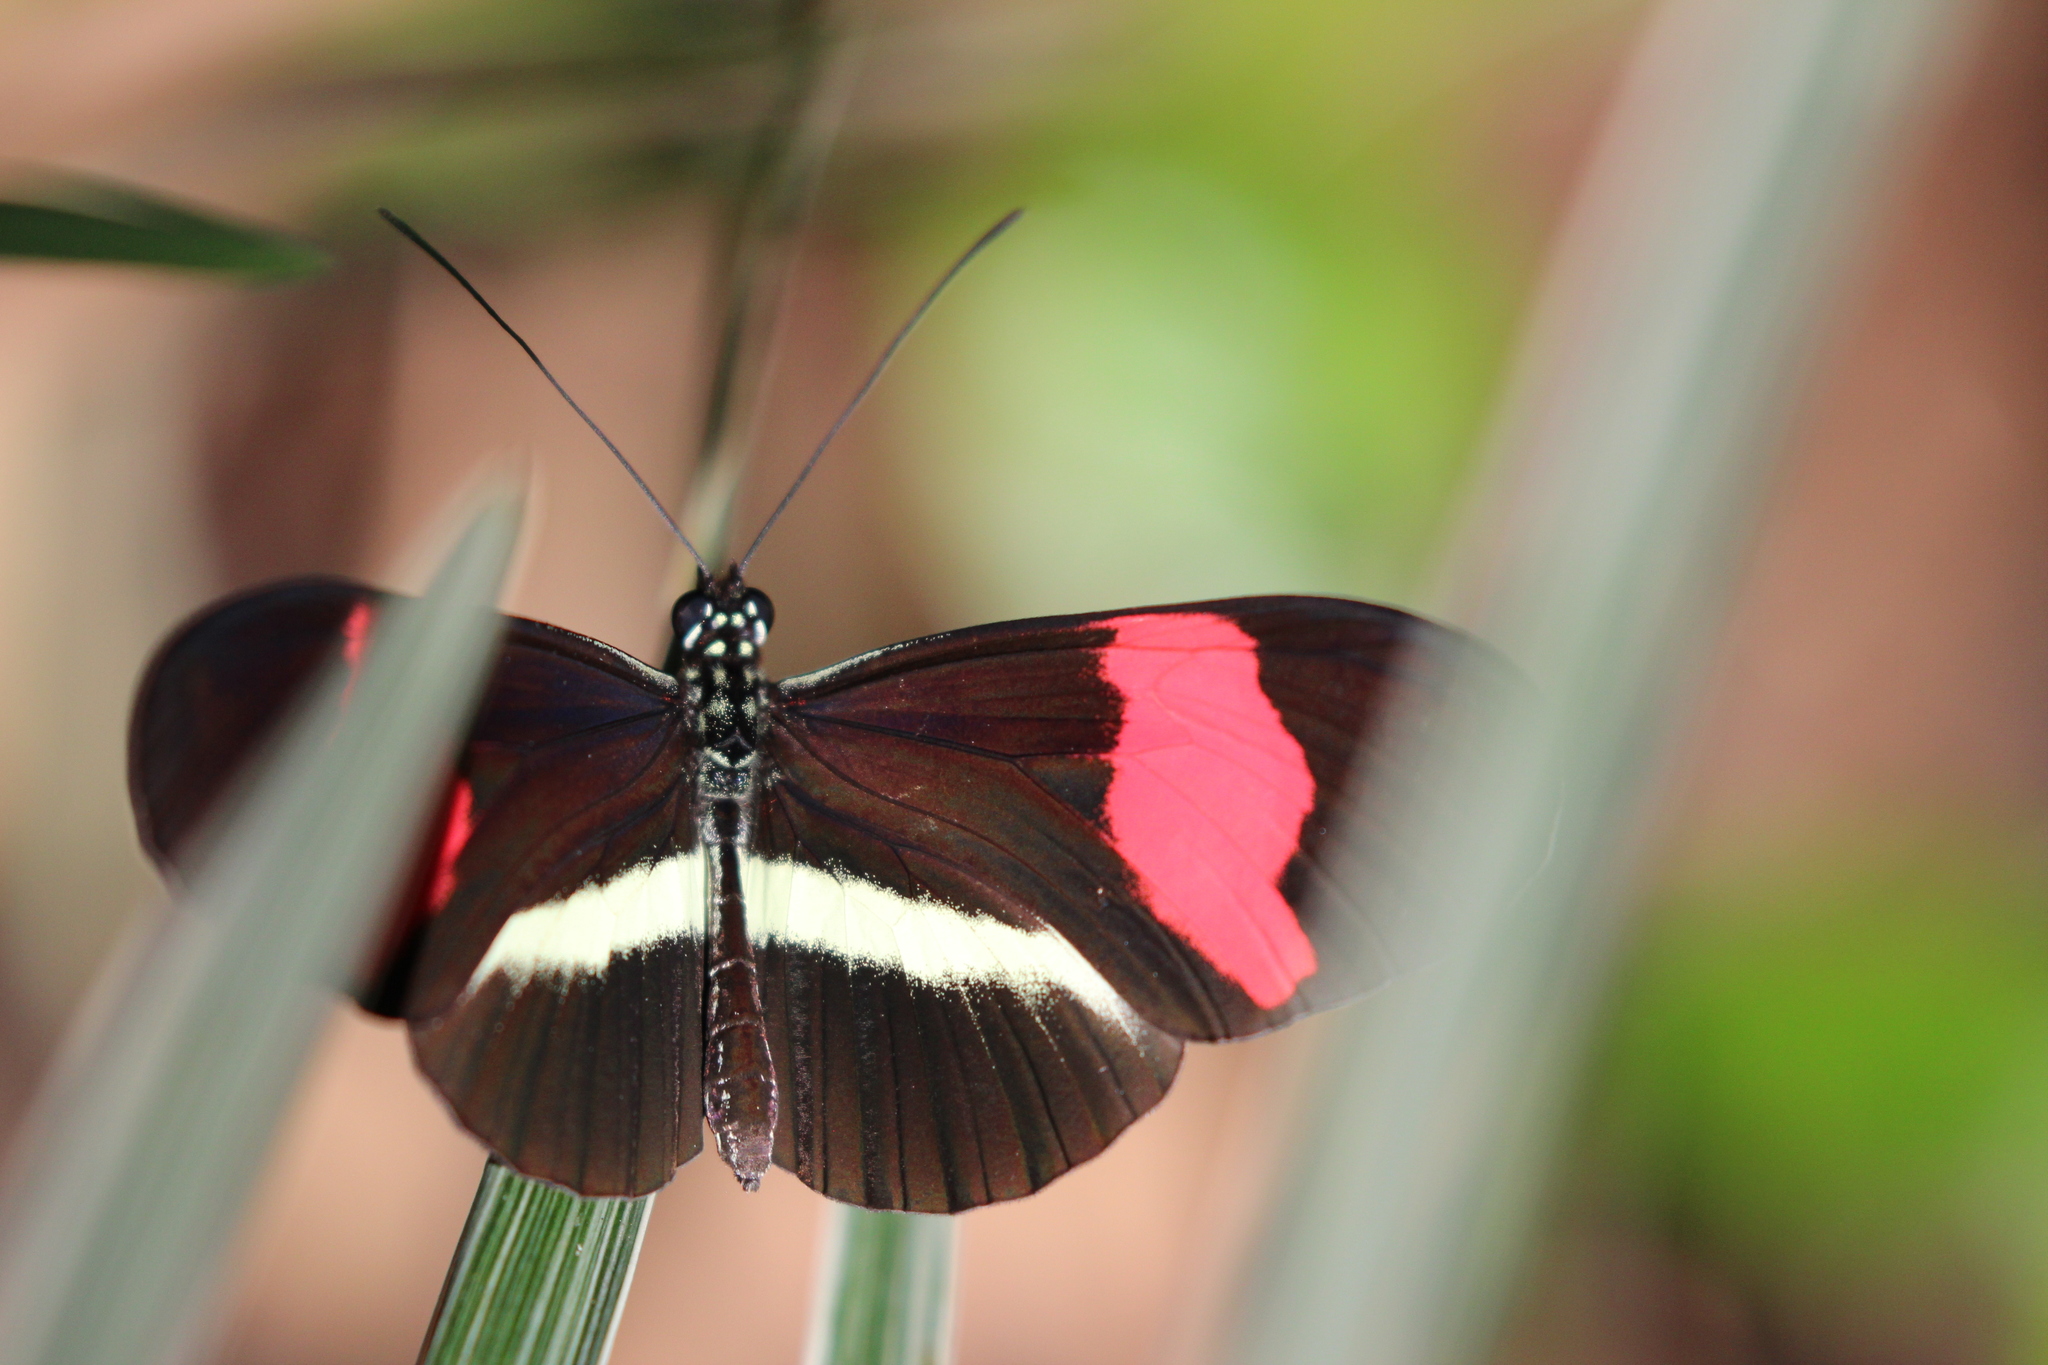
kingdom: Animalia
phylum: Arthropoda
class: Insecta
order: Lepidoptera
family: Nymphalidae
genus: Heliconius
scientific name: Heliconius erato
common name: Common patch longwing
